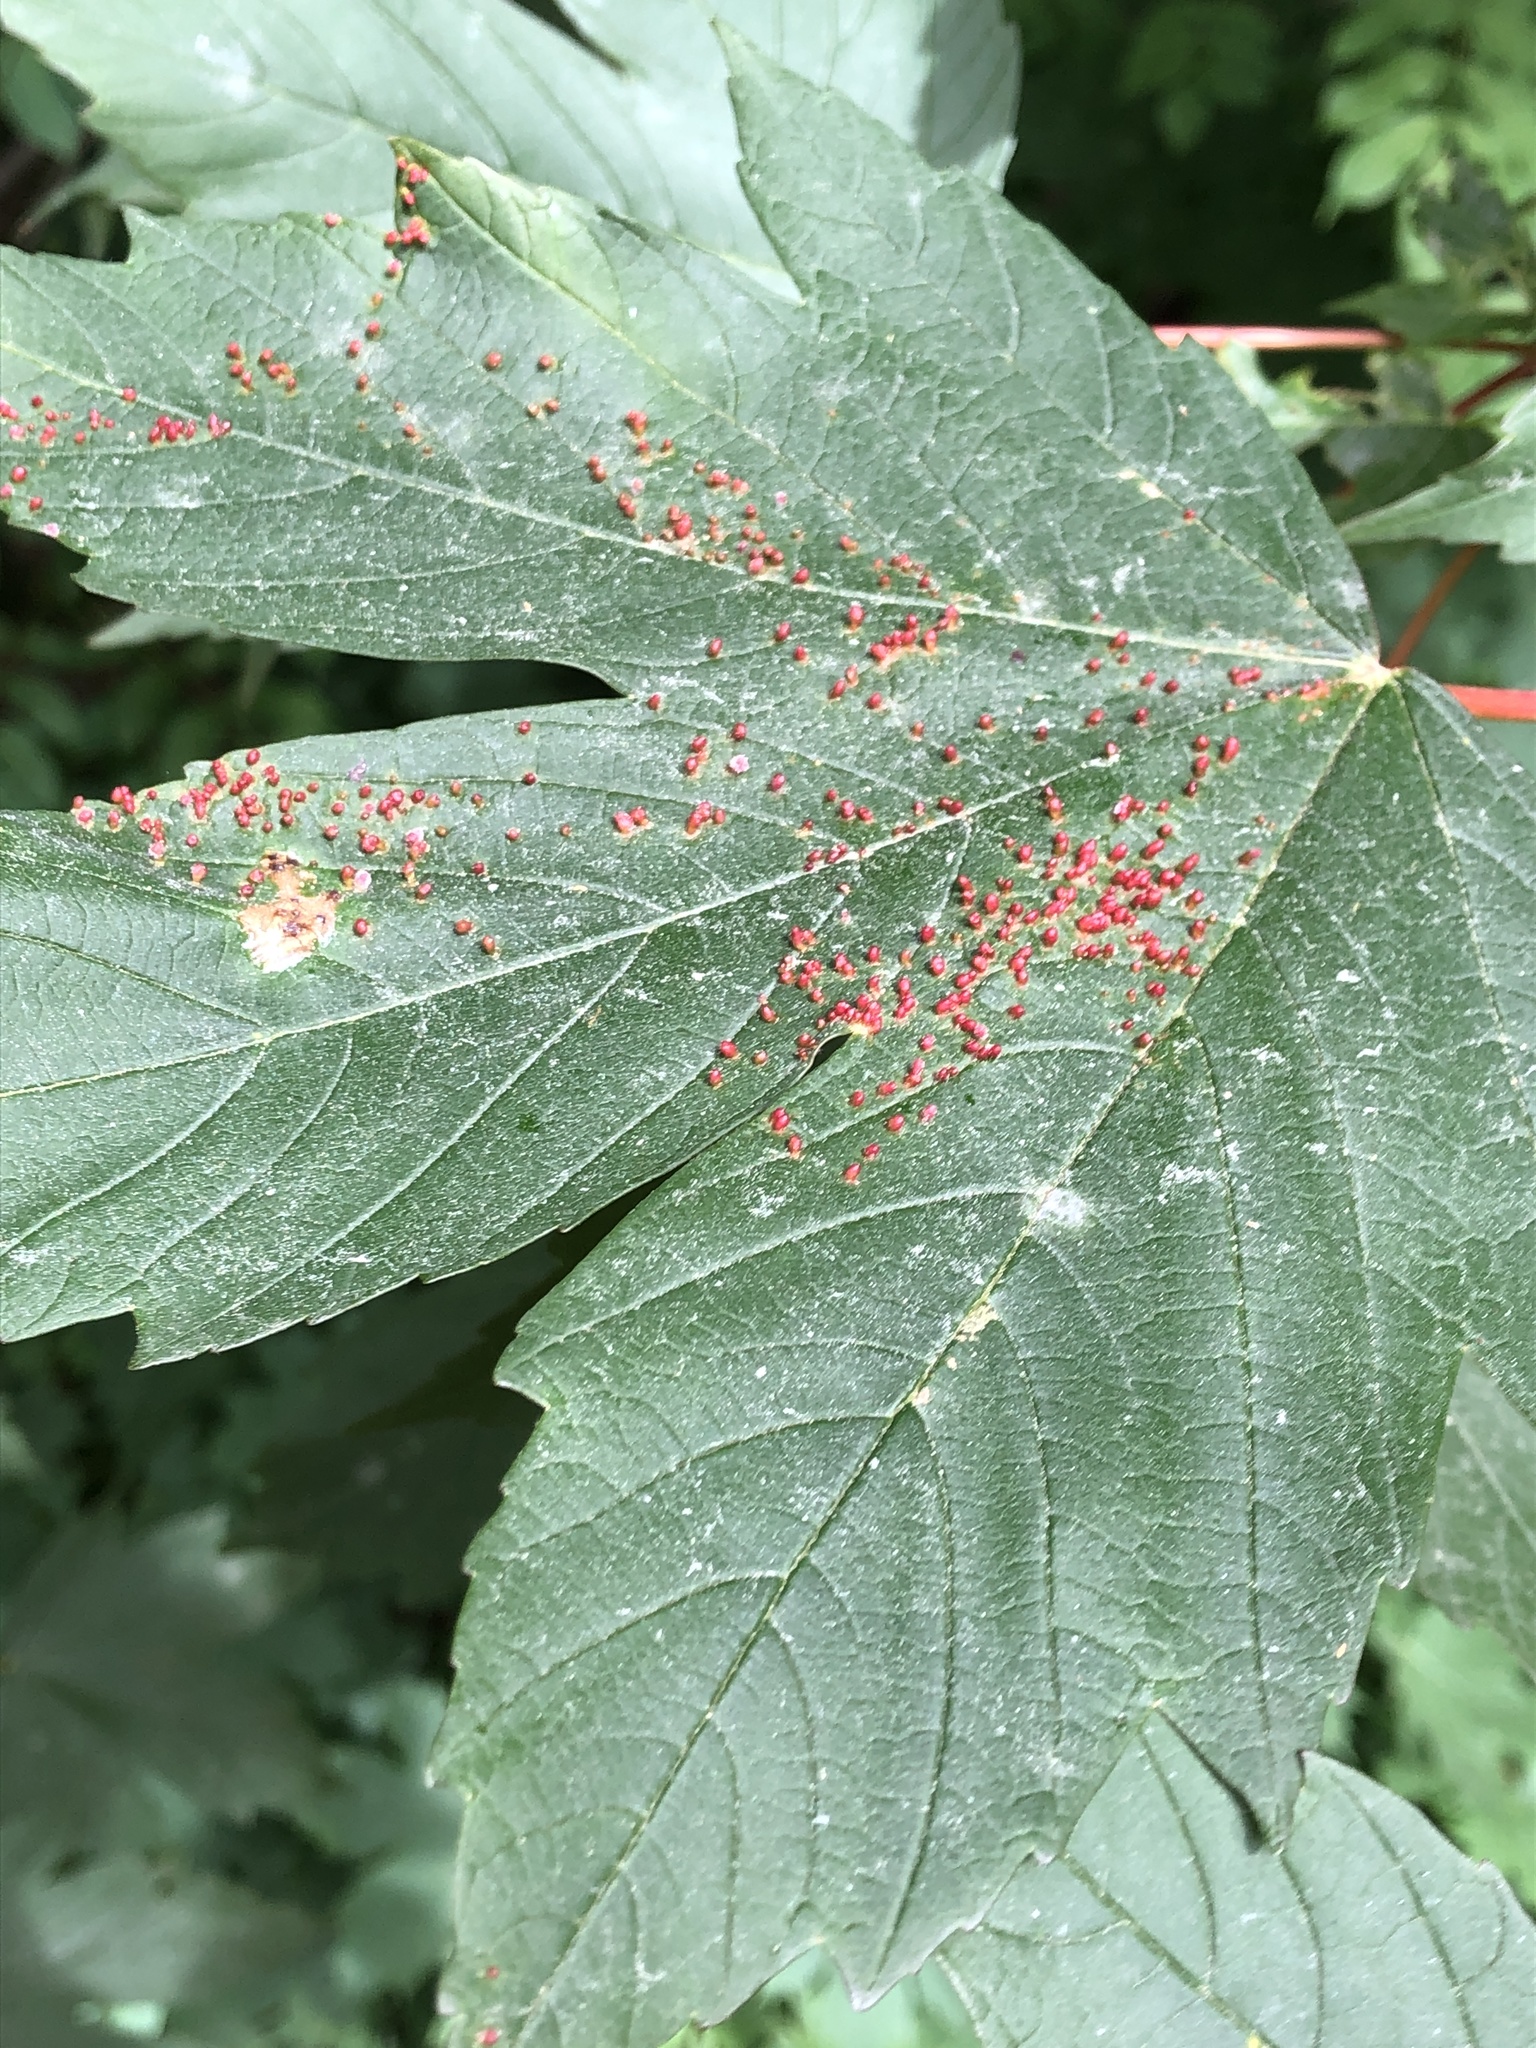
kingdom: Animalia
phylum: Arthropoda
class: Arachnida
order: Trombidiformes
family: Eriophyidae
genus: Aceria
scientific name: Aceria cephaloneus
